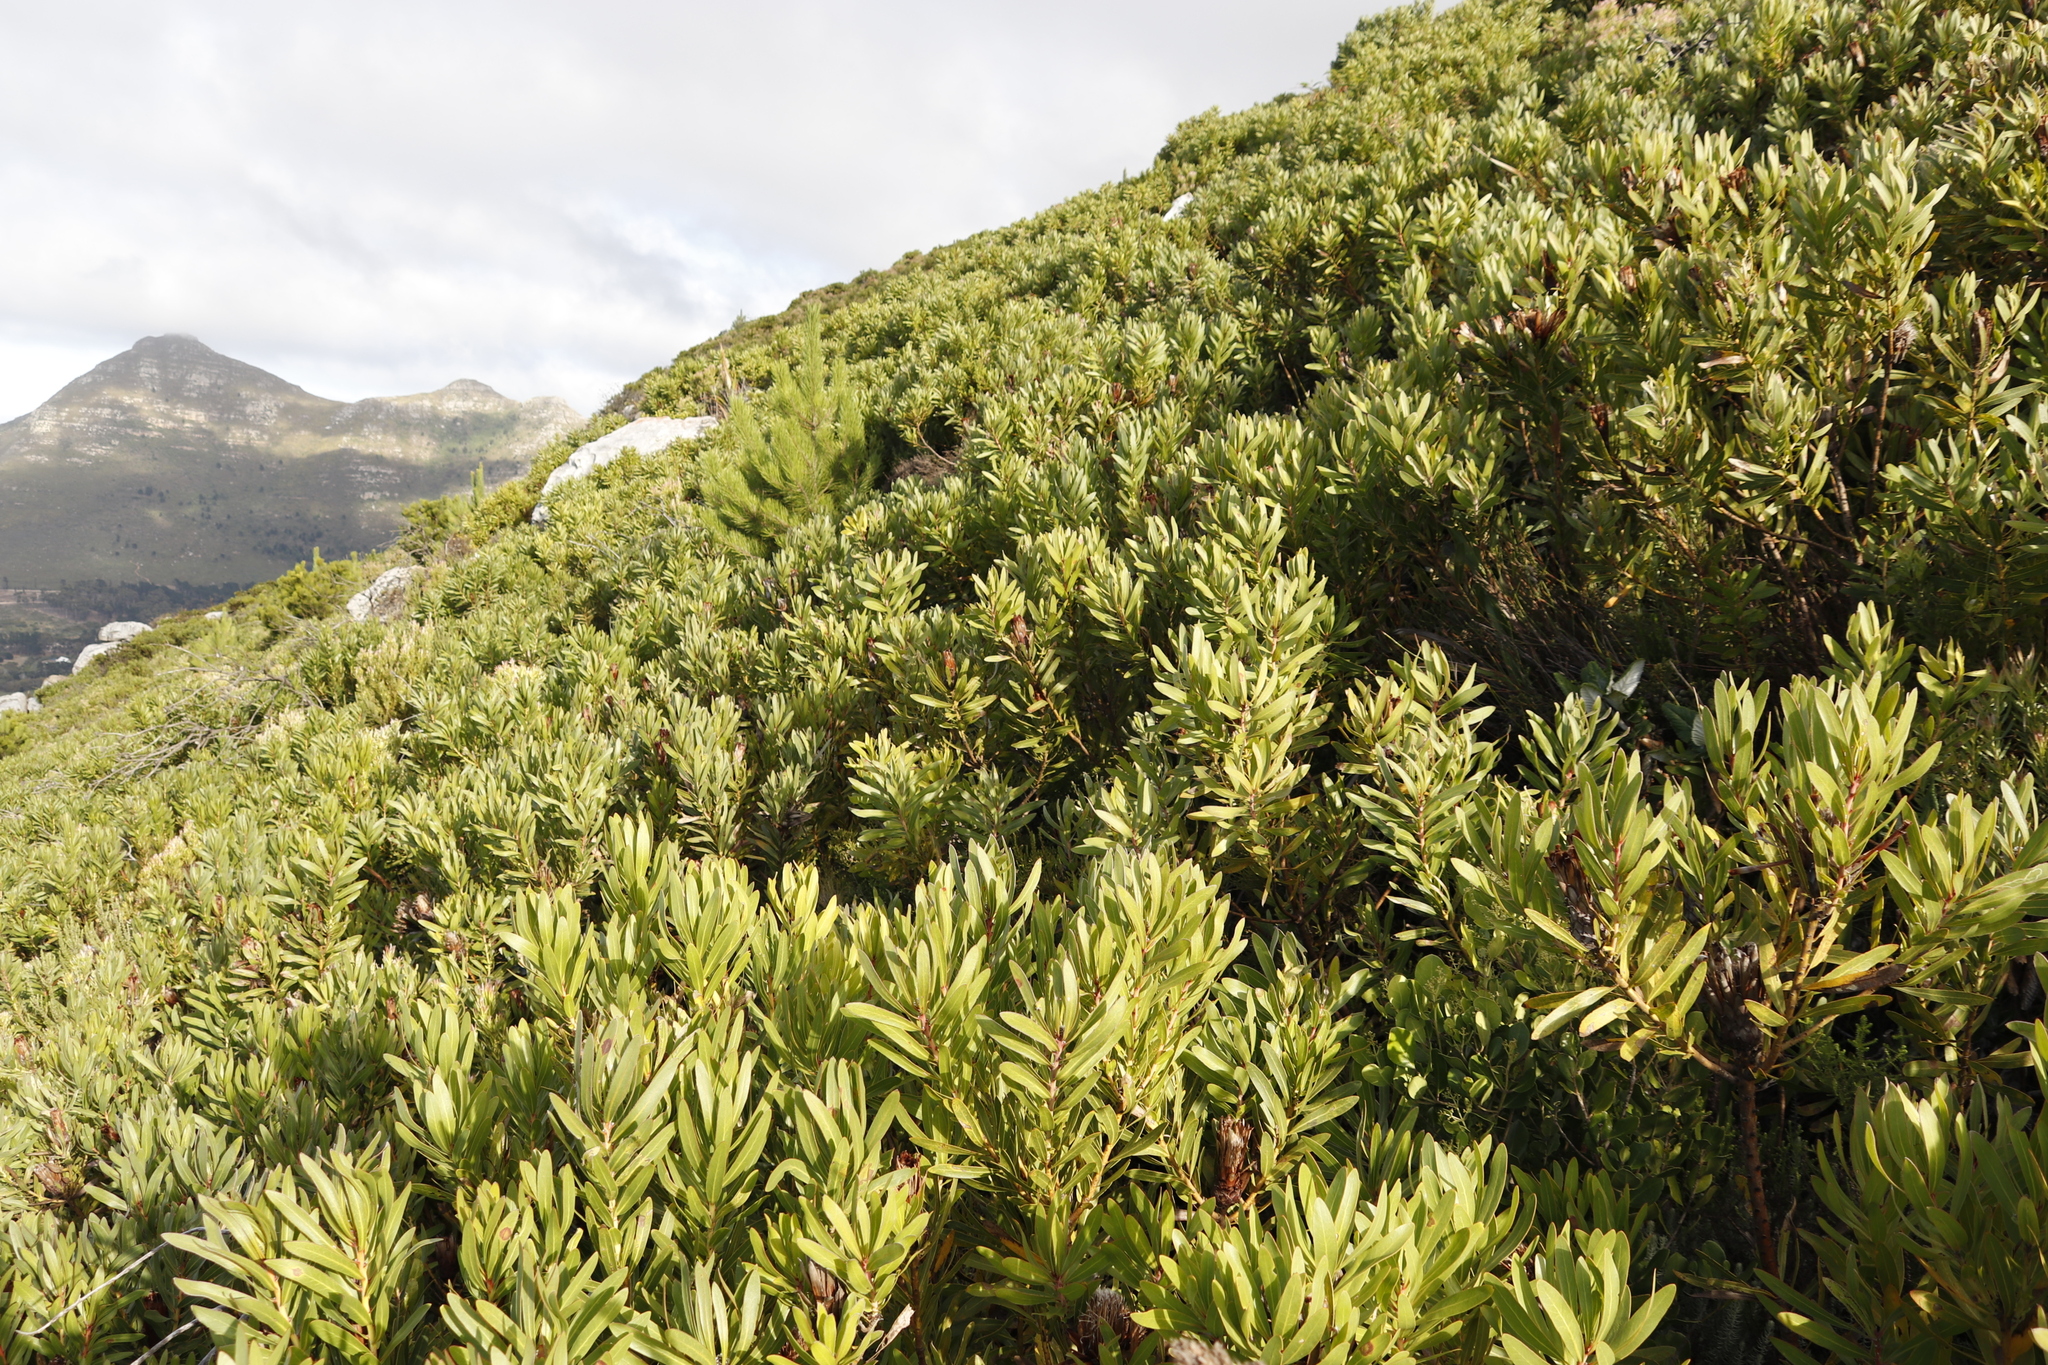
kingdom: Plantae
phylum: Tracheophyta
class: Magnoliopsida
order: Proteales
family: Proteaceae
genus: Protea
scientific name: Protea lepidocarpodendron
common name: Black-bearded protea
